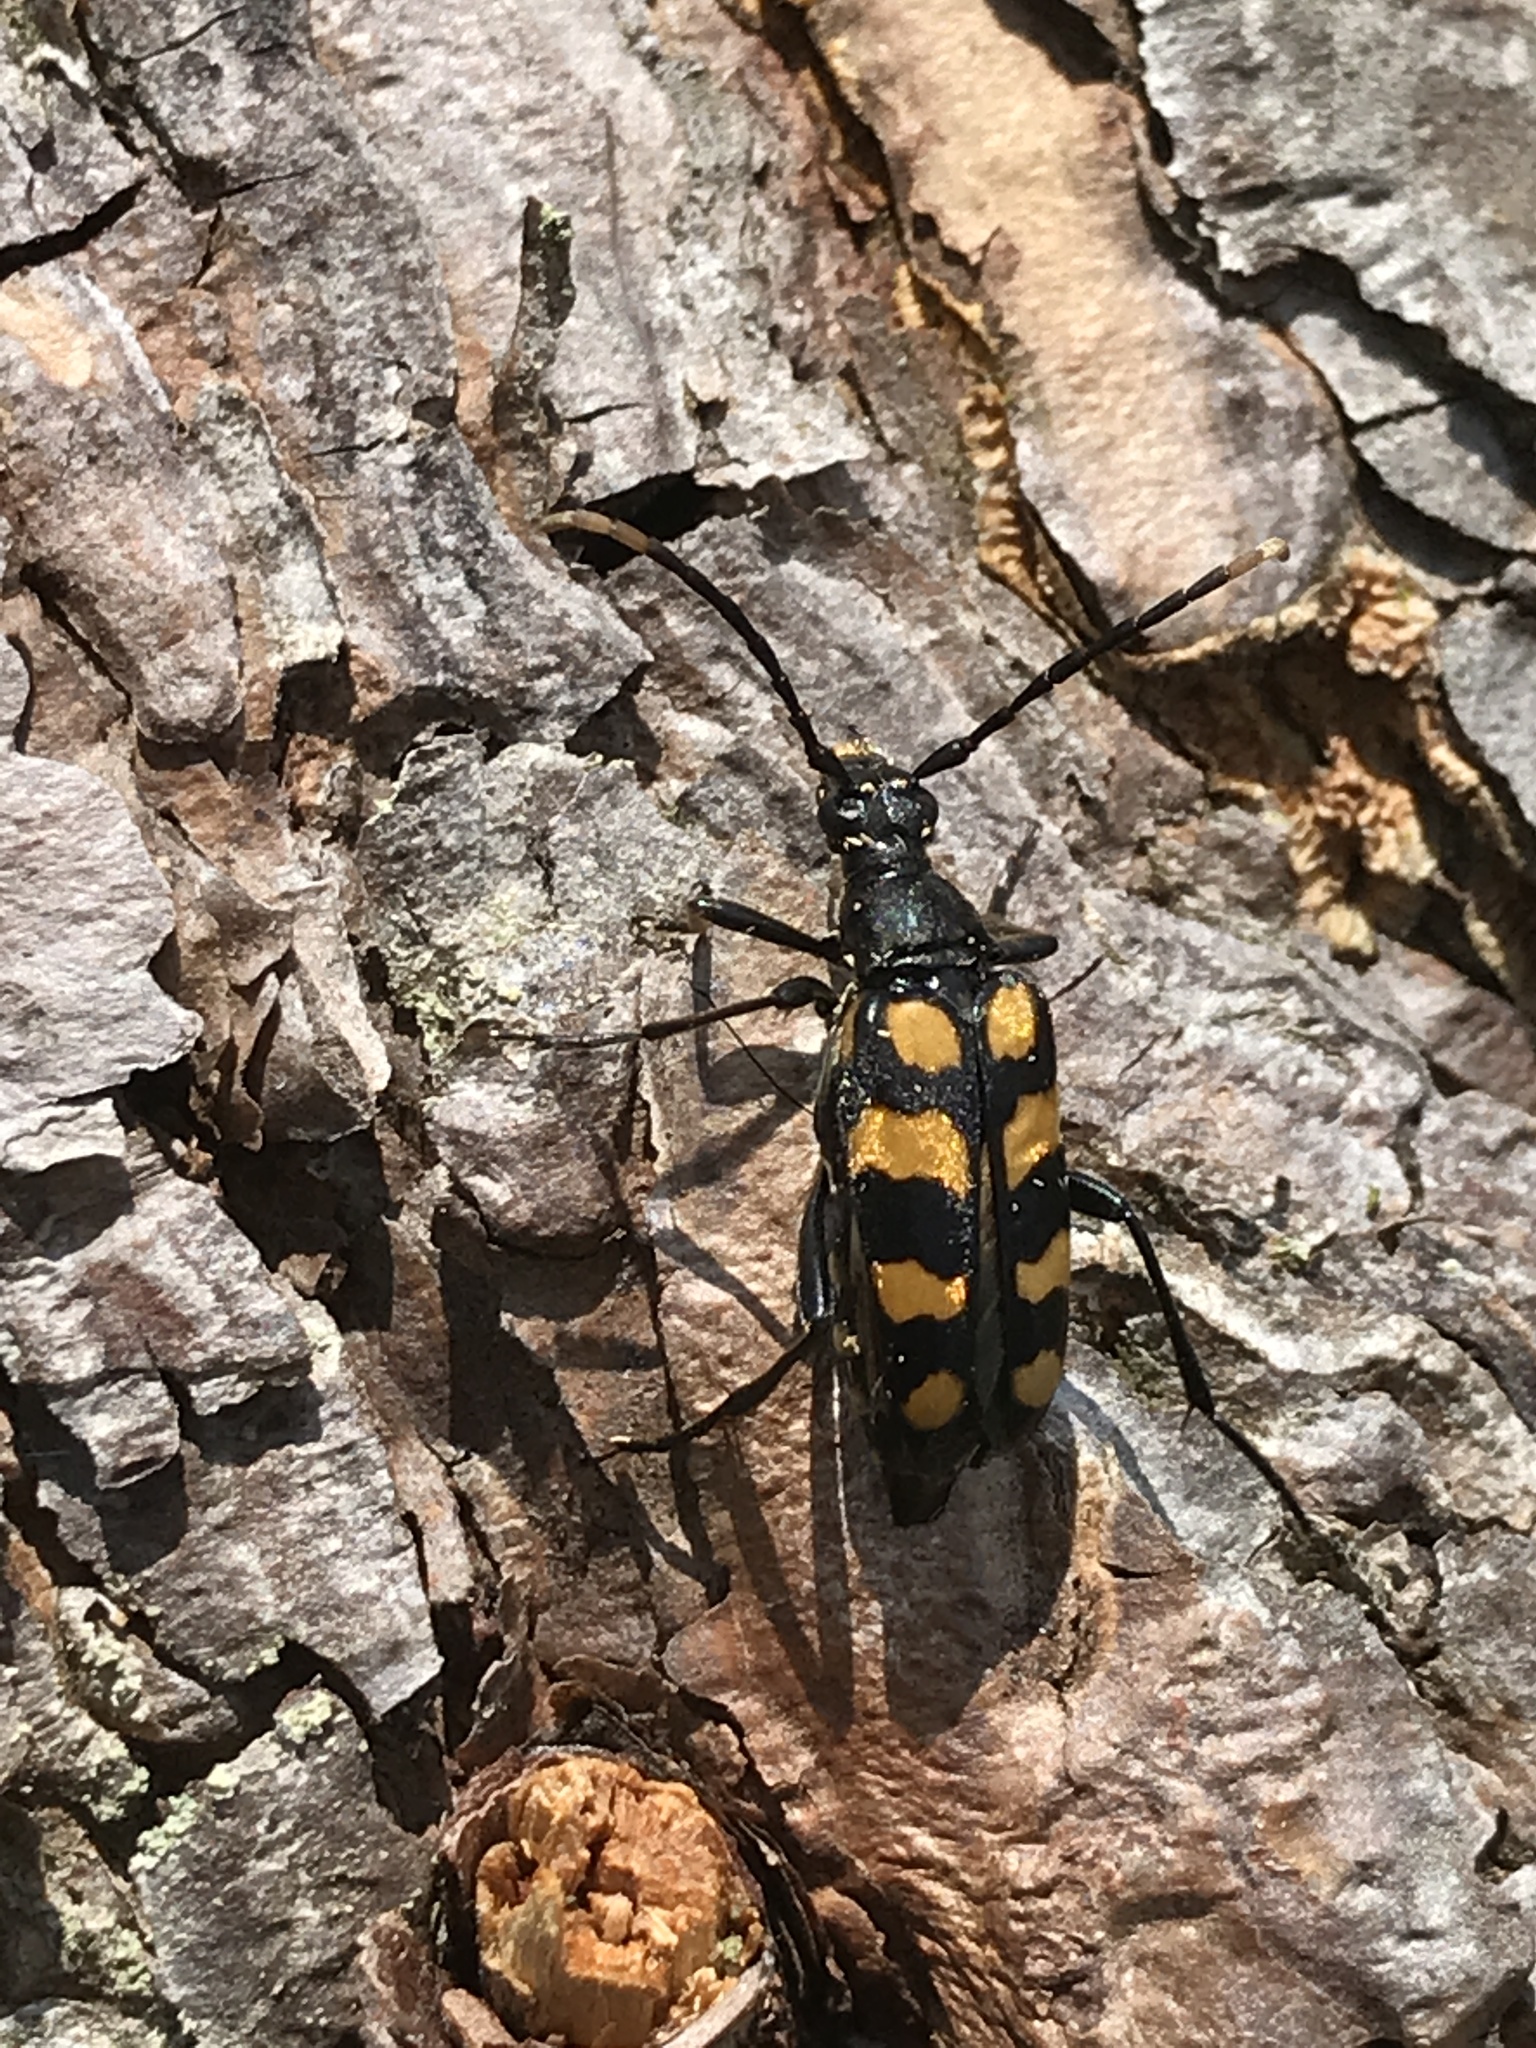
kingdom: Animalia
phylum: Arthropoda
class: Insecta
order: Coleoptera
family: Cerambycidae
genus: Leptura
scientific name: Leptura quadrifasciata
